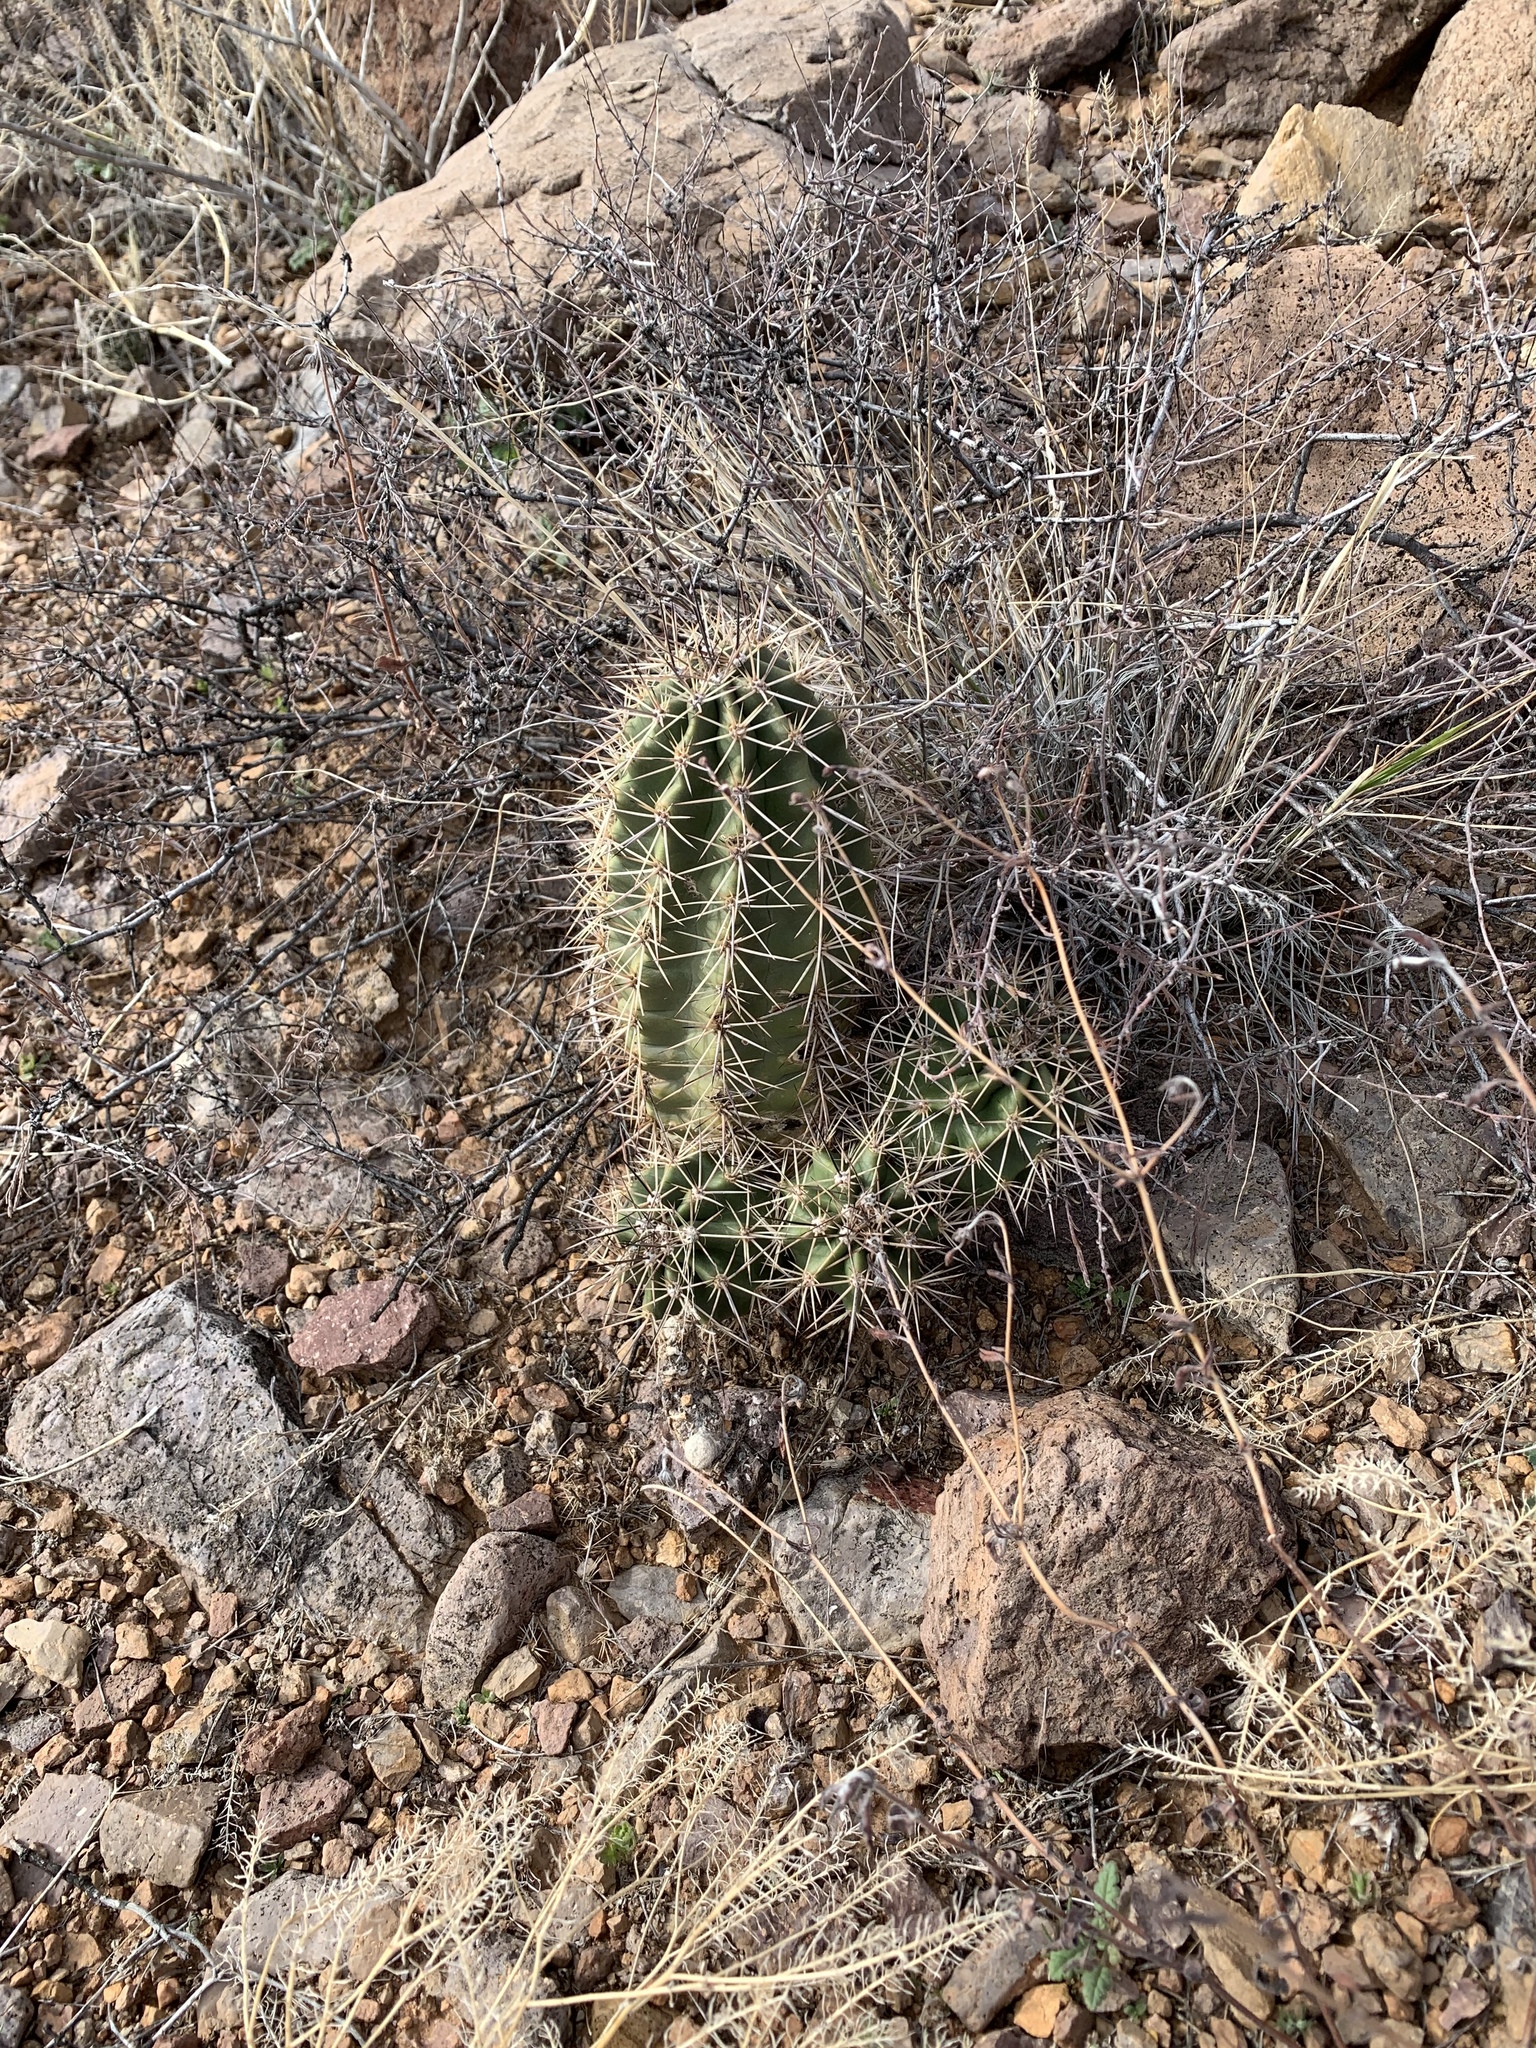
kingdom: Plantae
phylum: Tracheophyta
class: Magnoliopsida
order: Caryophyllales
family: Cactaceae
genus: Echinocereus
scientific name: Echinocereus coccineus
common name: Scarlet hedgehog cactus
